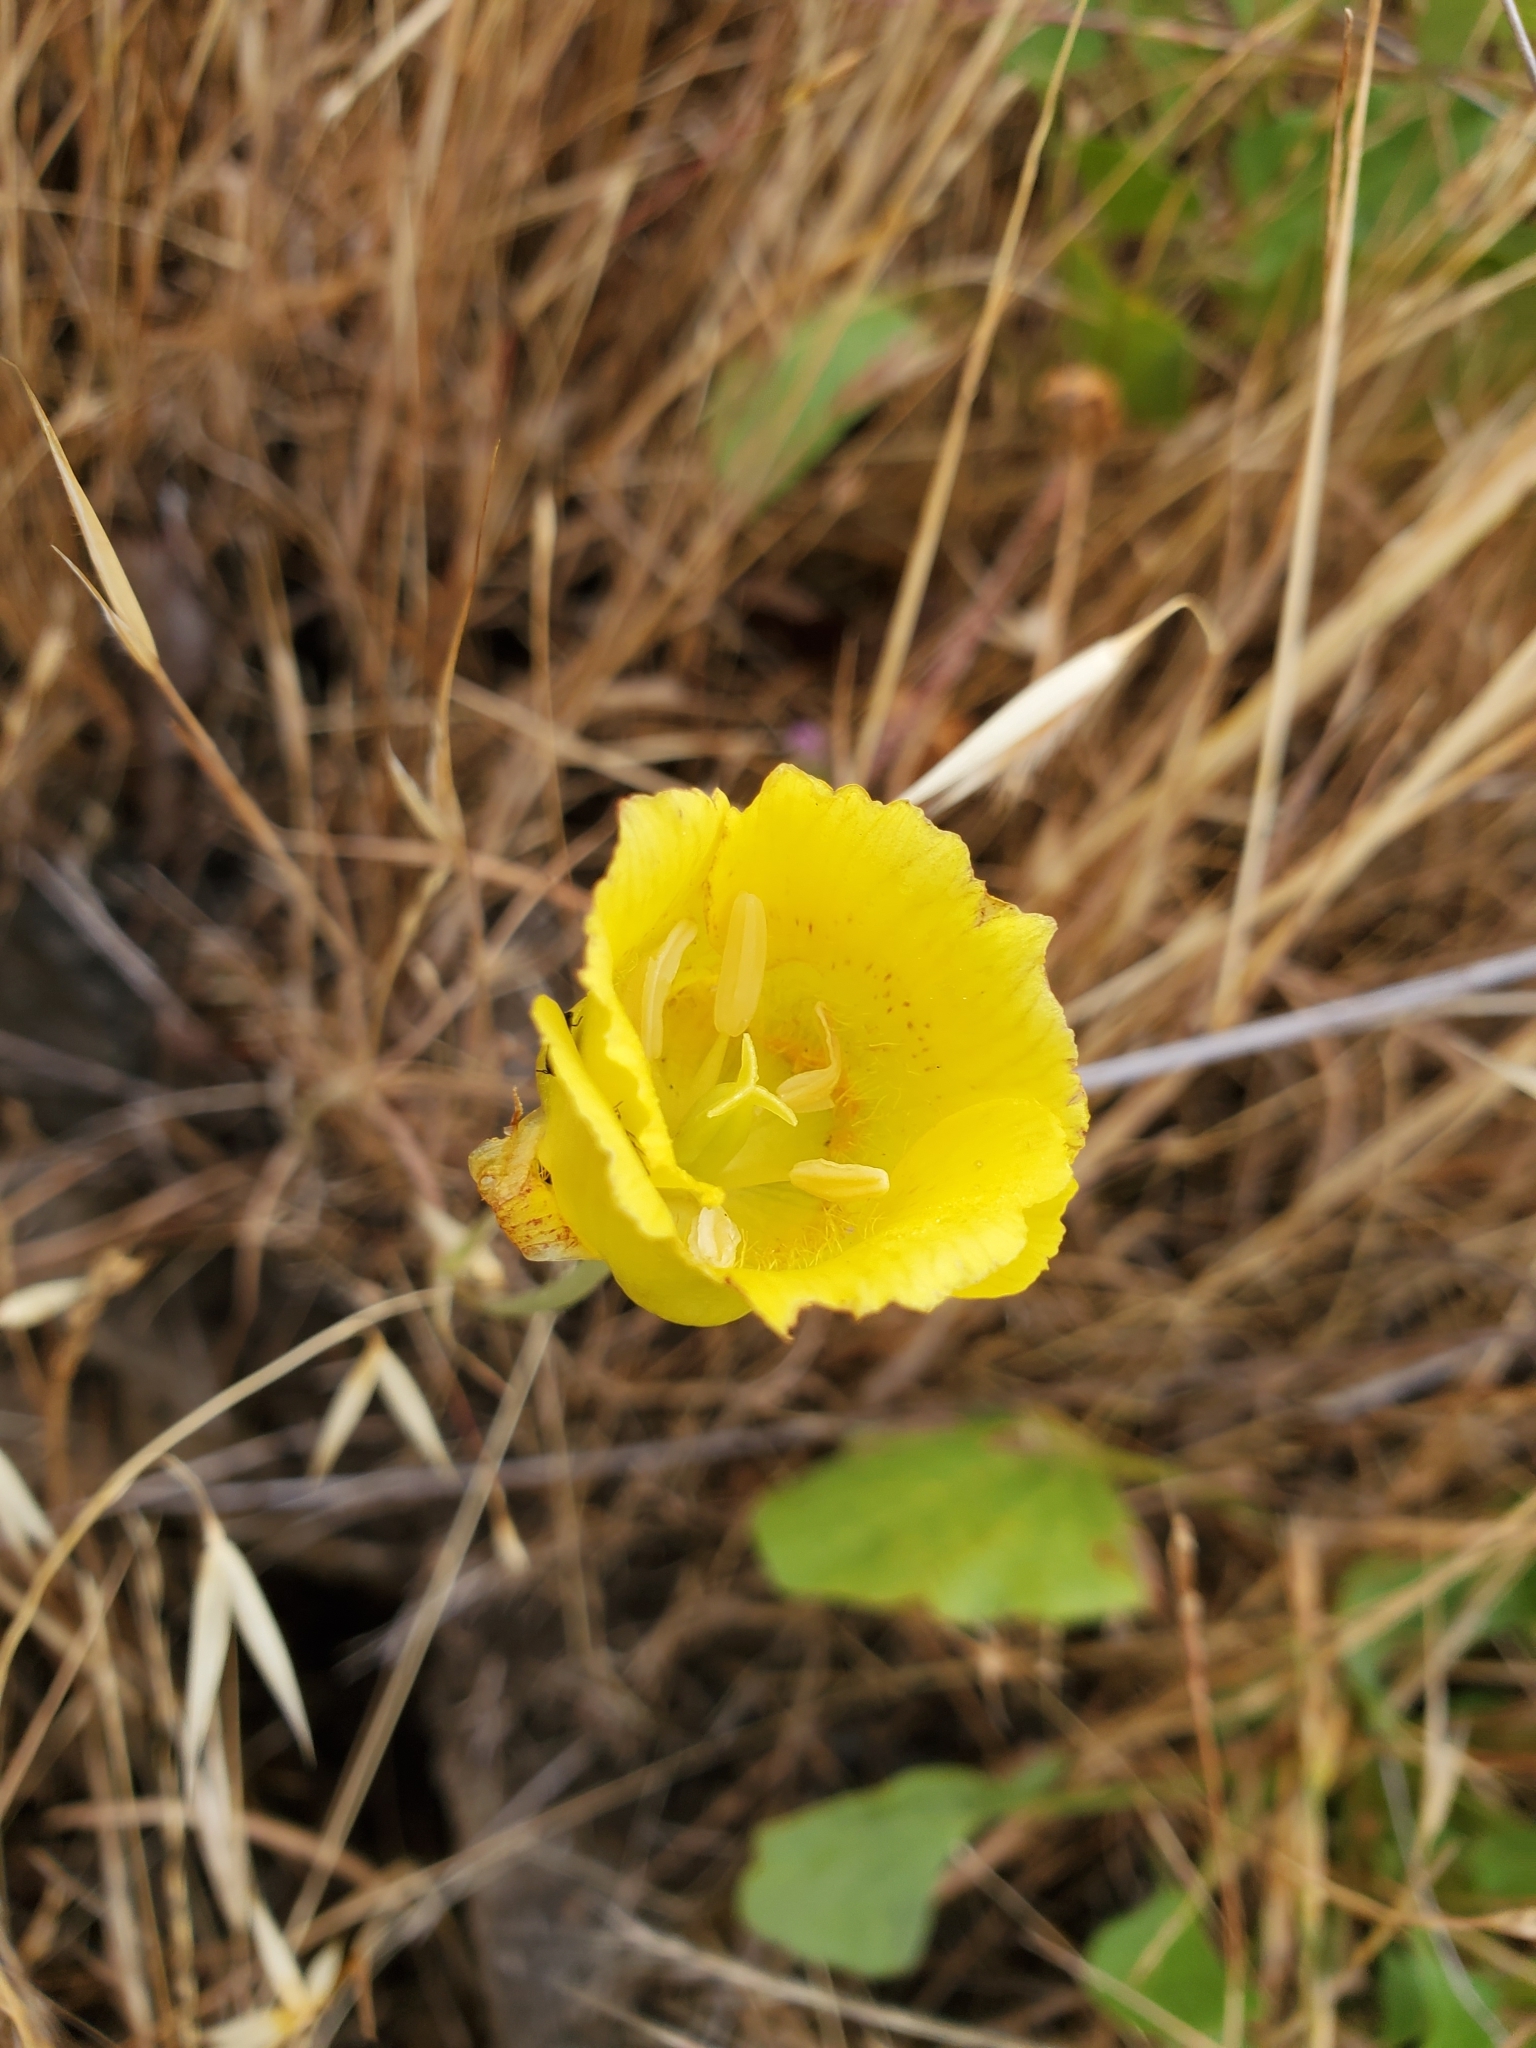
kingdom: Plantae
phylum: Tracheophyta
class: Liliopsida
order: Liliales
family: Liliaceae
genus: Calochortus
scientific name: Calochortus luteus
